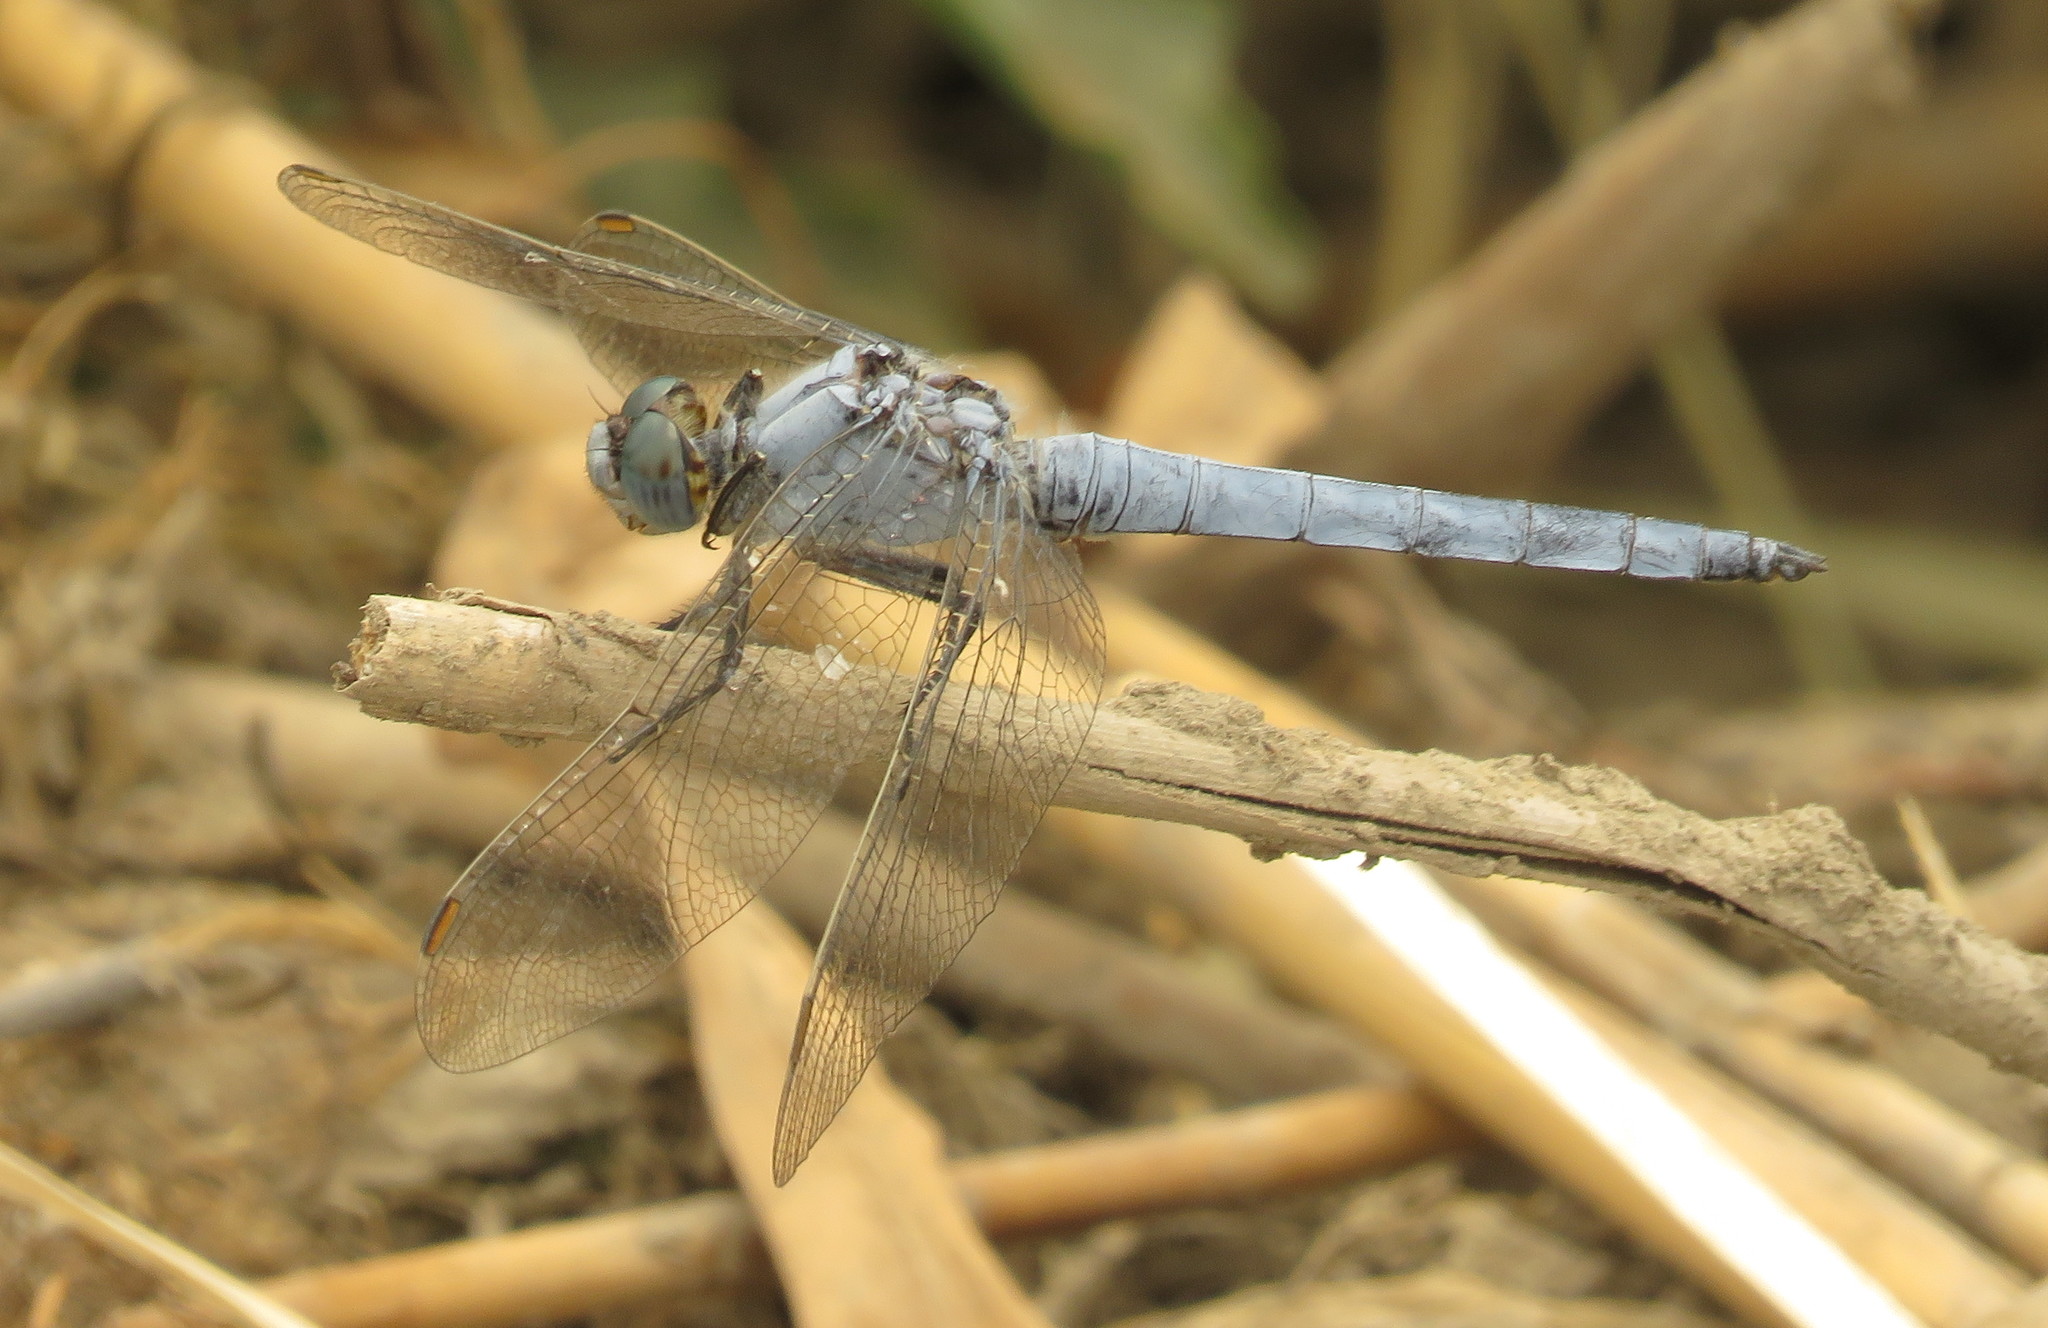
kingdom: Animalia
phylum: Arthropoda
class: Insecta
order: Odonata
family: Libellulidae
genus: Orthetrum
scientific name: Orthetrum brunneum
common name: Southern skimmer
